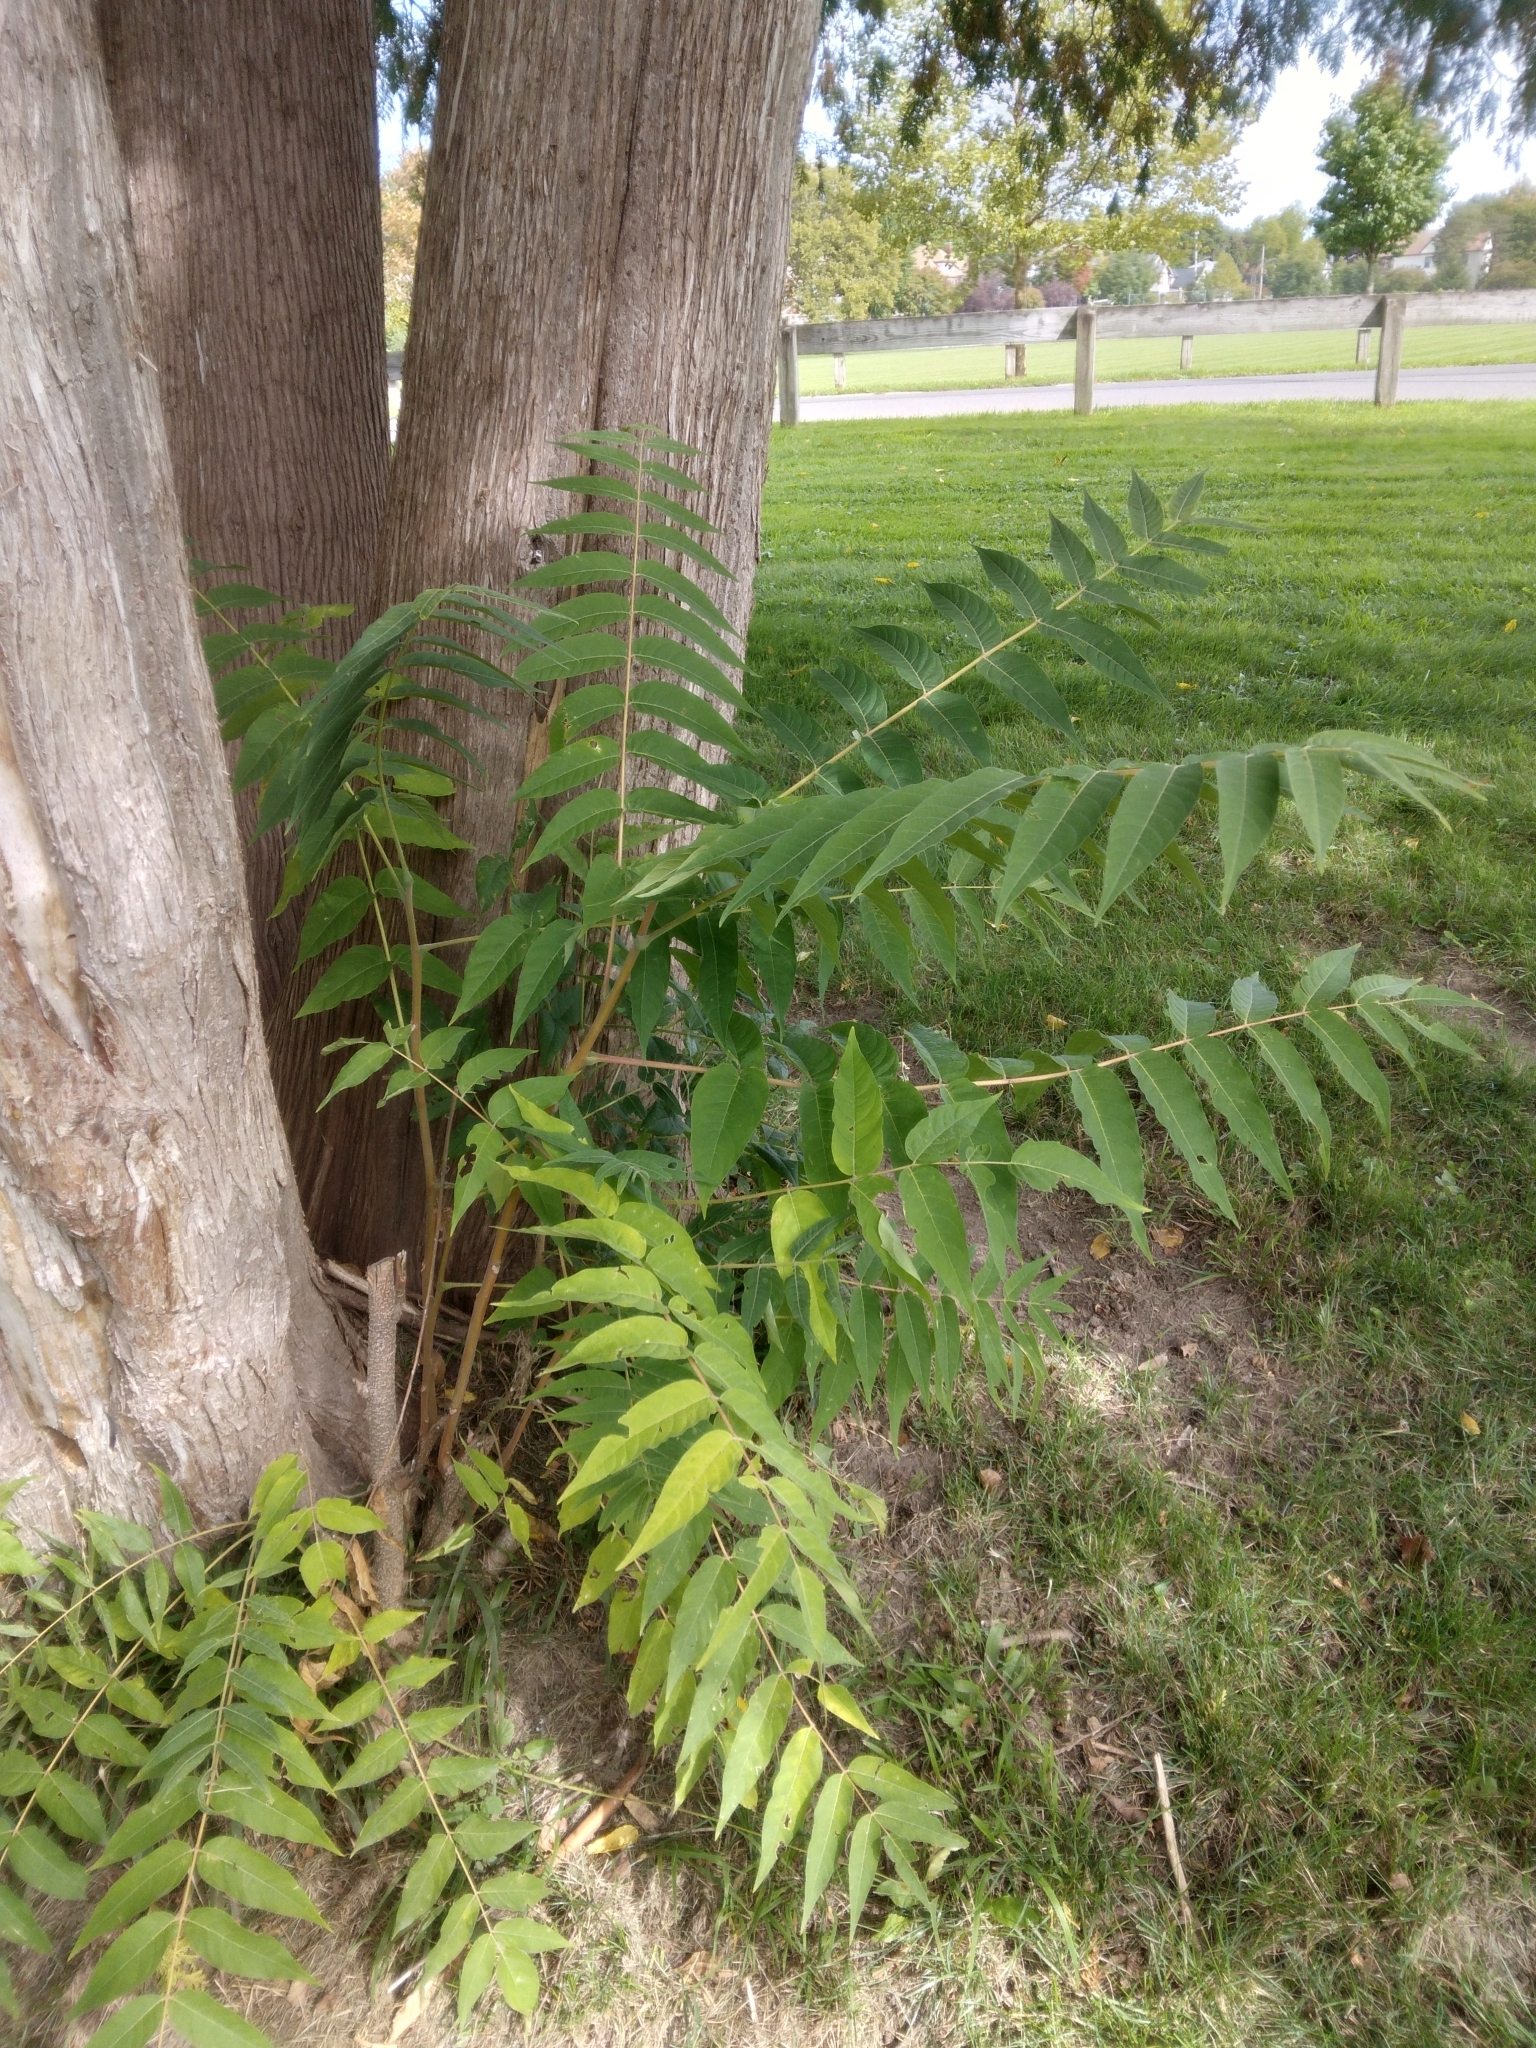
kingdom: Plantae
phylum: Tracheophyta
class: Magnoliopsida
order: Sapindales
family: Simaroubaceae
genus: Ailanthus
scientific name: Ailanthus altissima
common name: Tree-of-heaven
